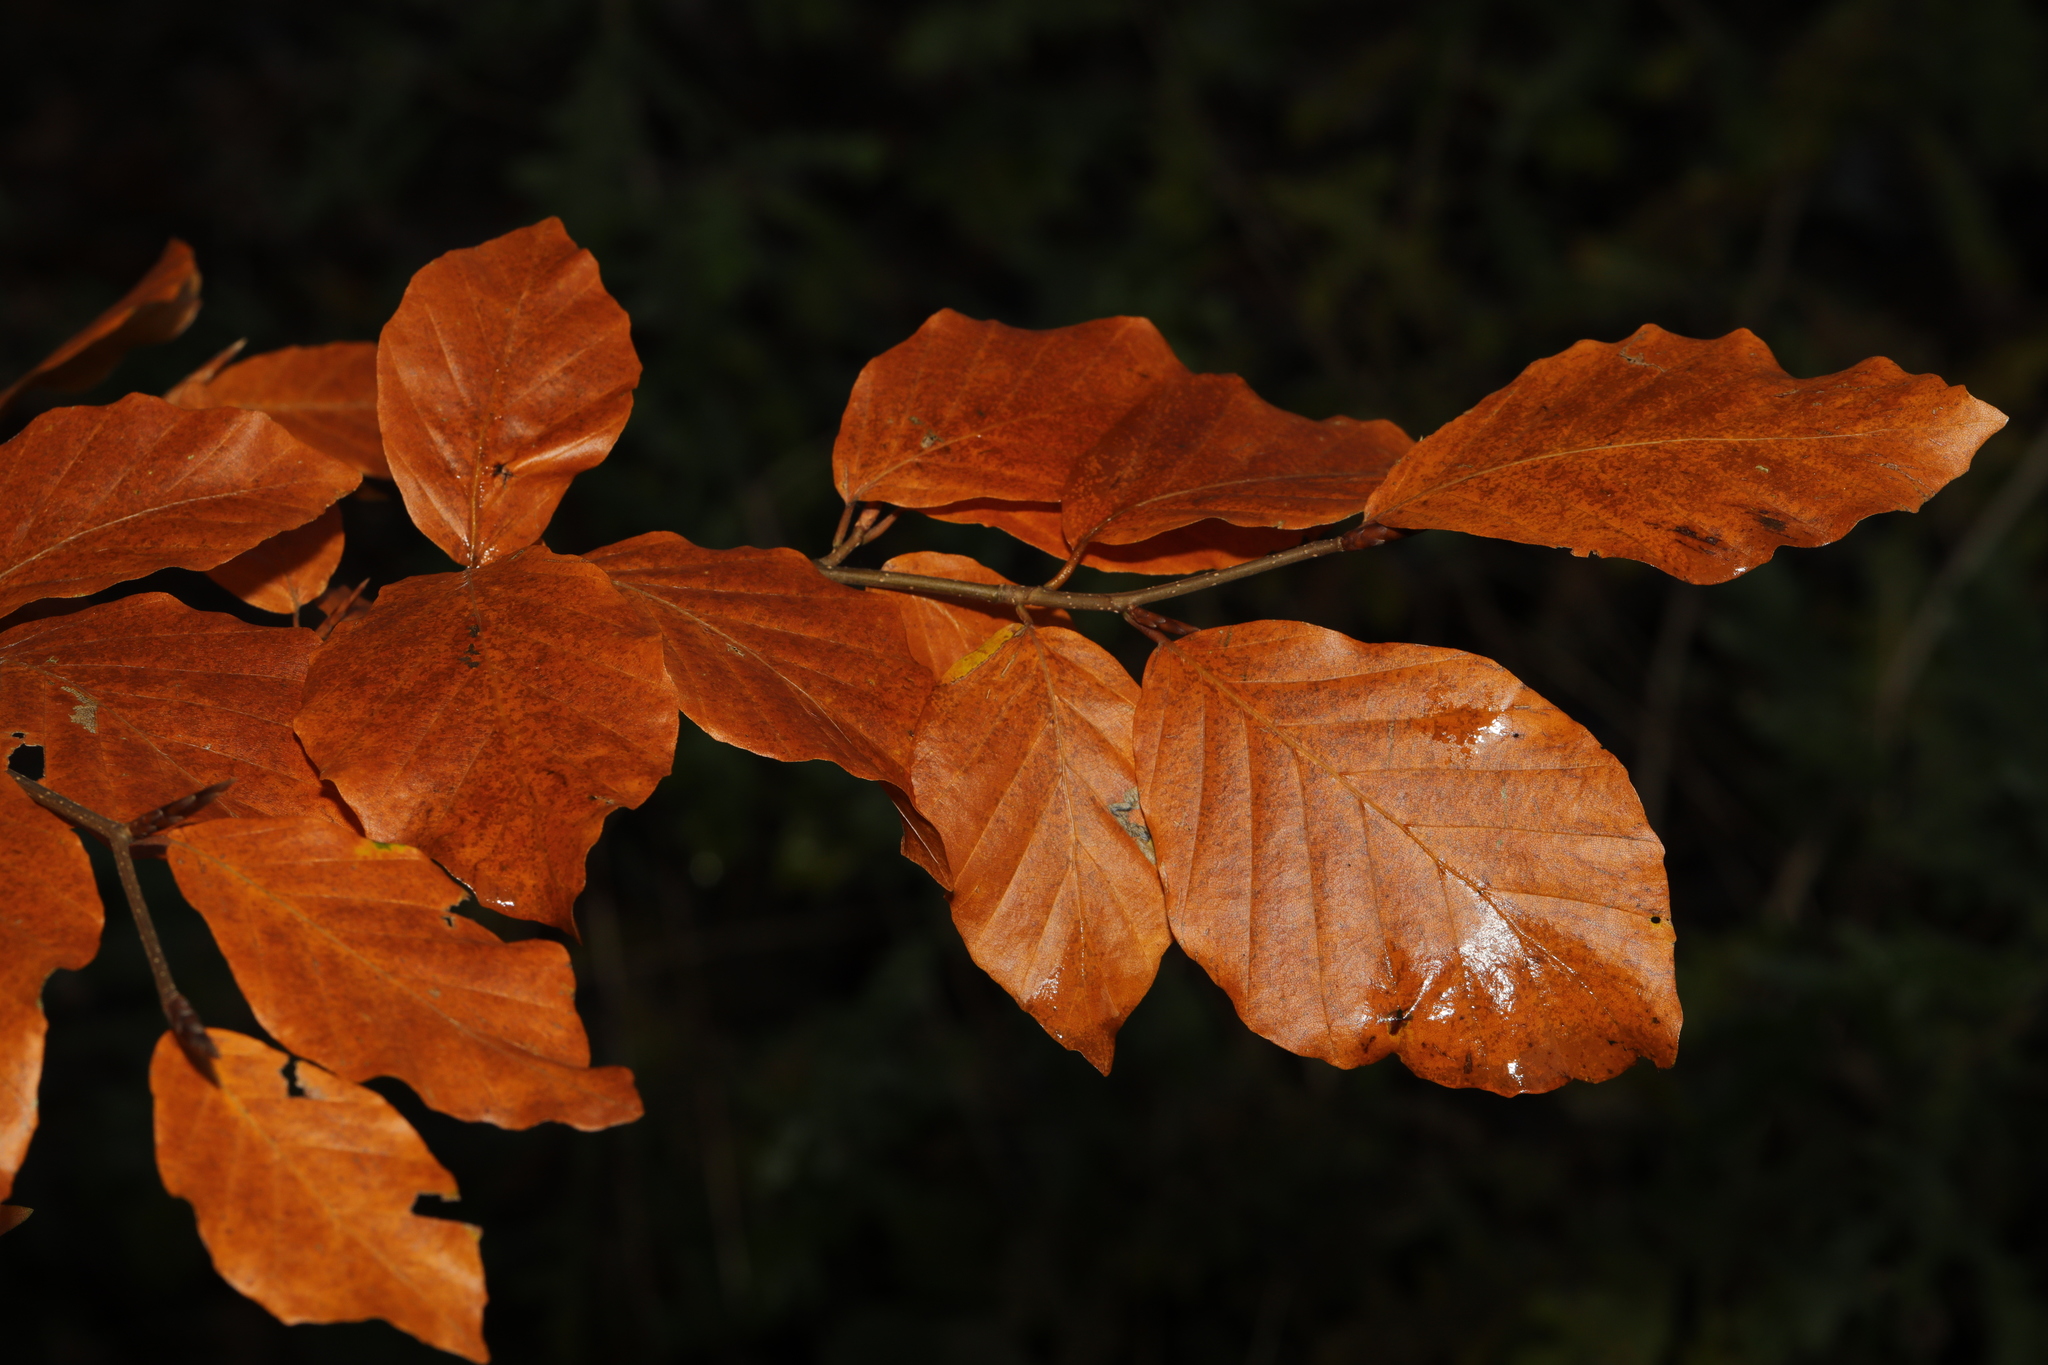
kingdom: Plantae
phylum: Tracheophyta
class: Magnoliopsida
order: Fagales
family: Fagaceae
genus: Fagus
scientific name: Fagus sylvatica
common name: Beech
